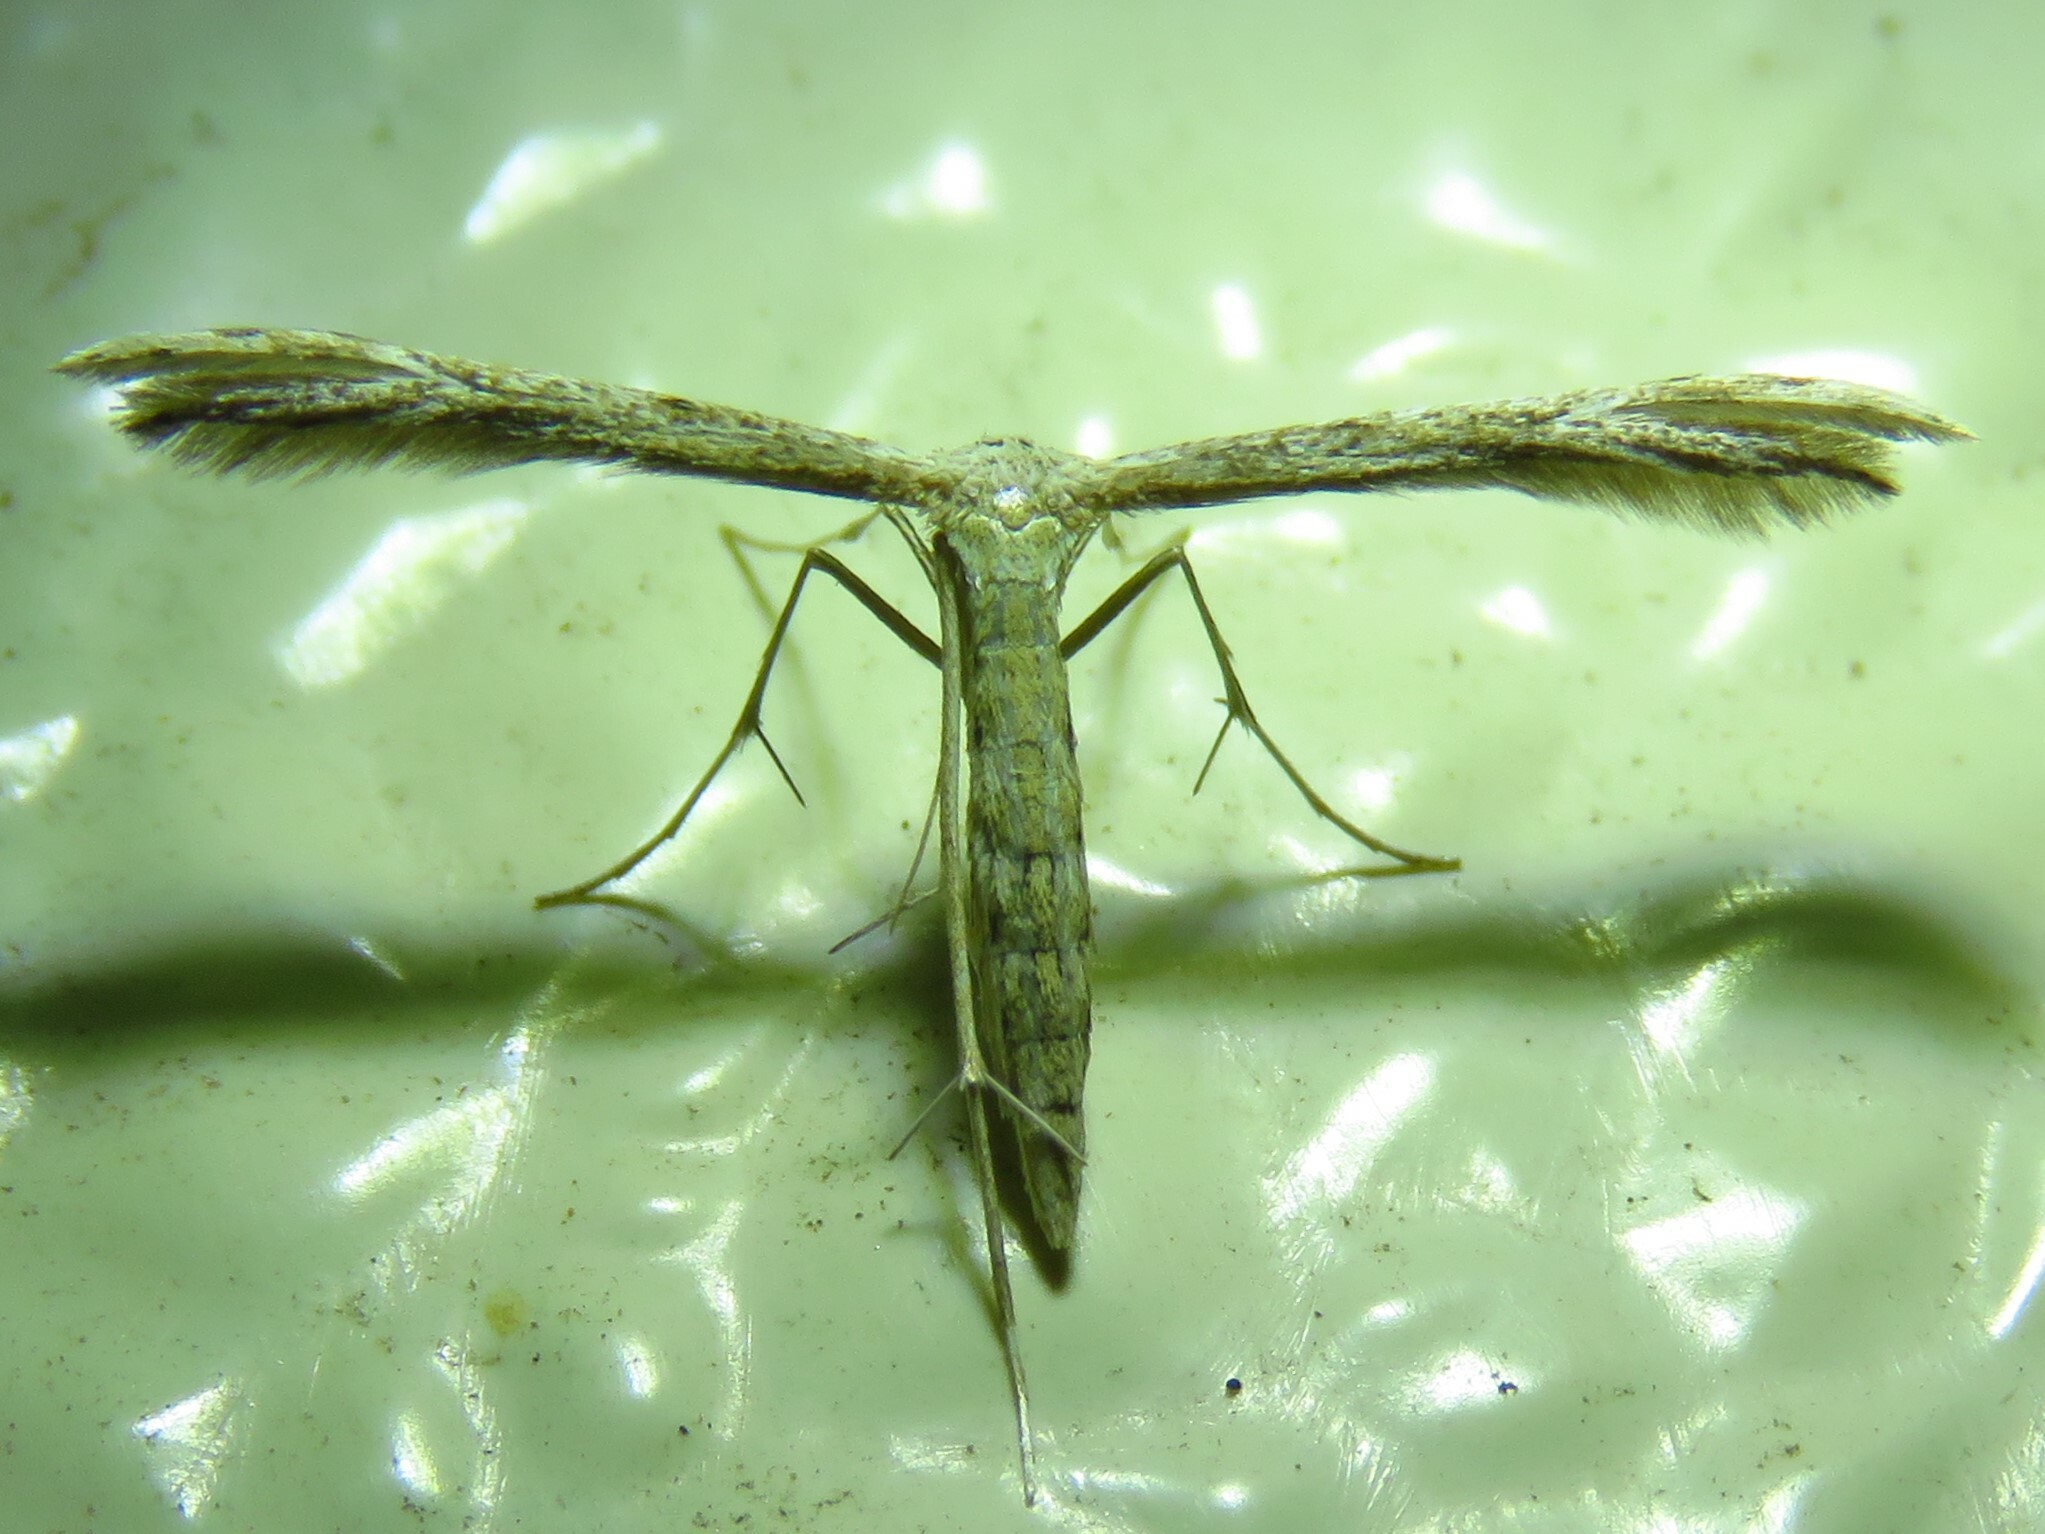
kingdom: Animalia
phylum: Arthropoda
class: Insecta
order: Lepidoptera
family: Pterophoridae
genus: Pselnophorus
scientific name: Pselnophorus belfragei
